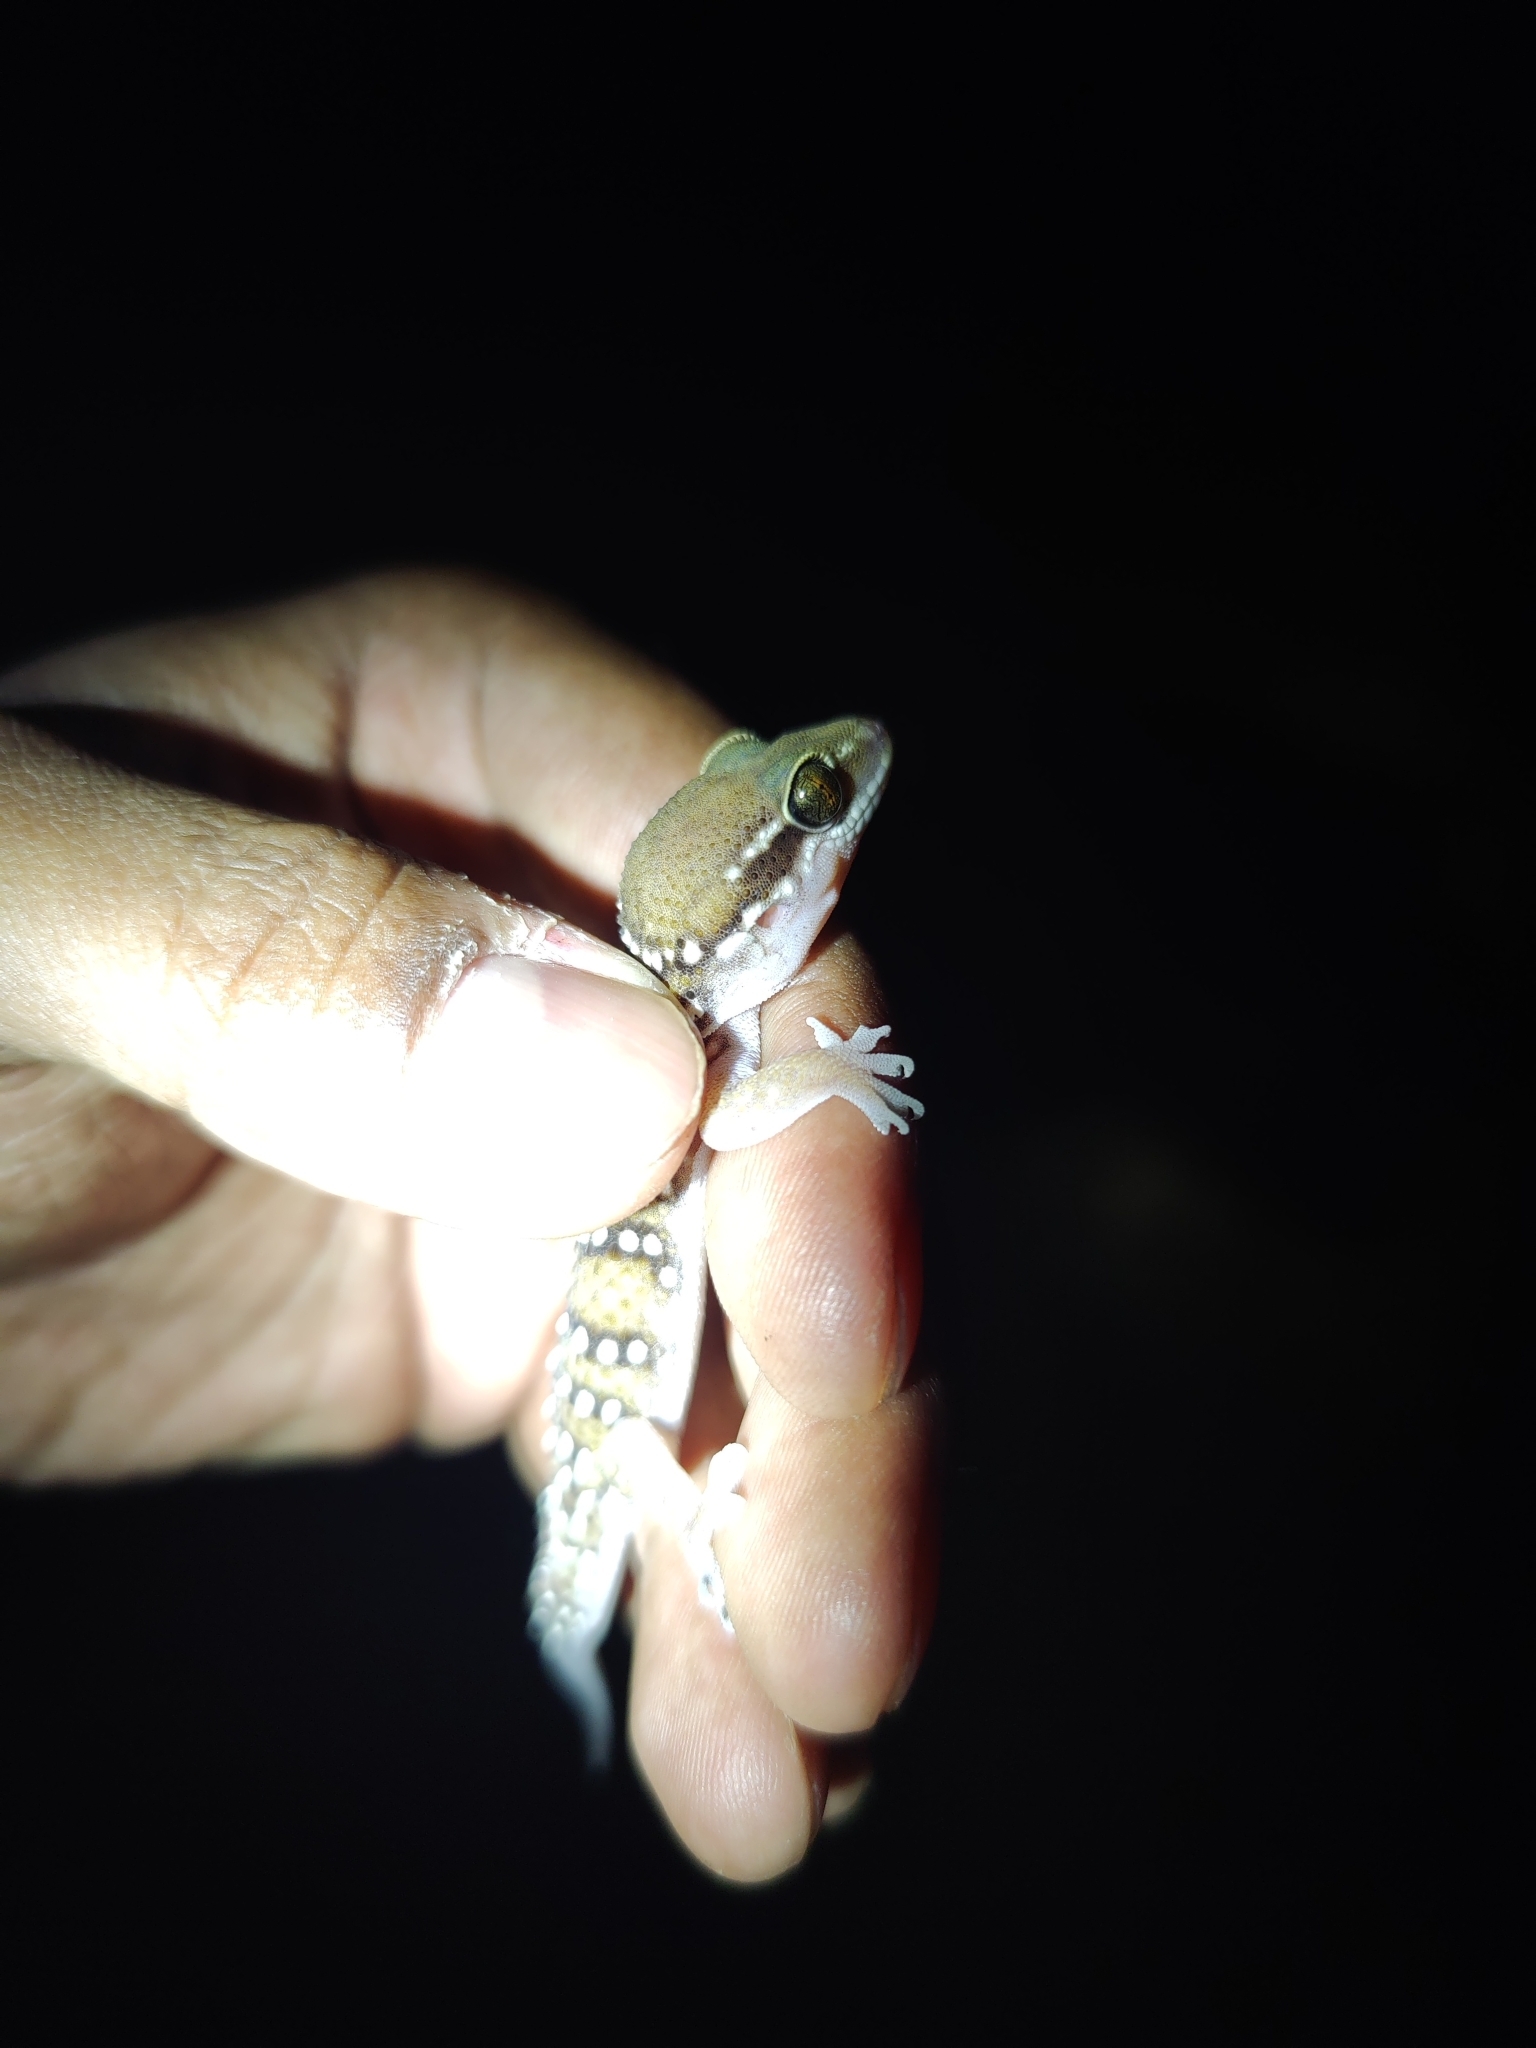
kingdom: Animalia
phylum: Chordata
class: Squamata
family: Gekkonidae
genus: Hemidactylus
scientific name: Hemidactylus whitakeri
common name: Whitaker’s termite hill gecko
